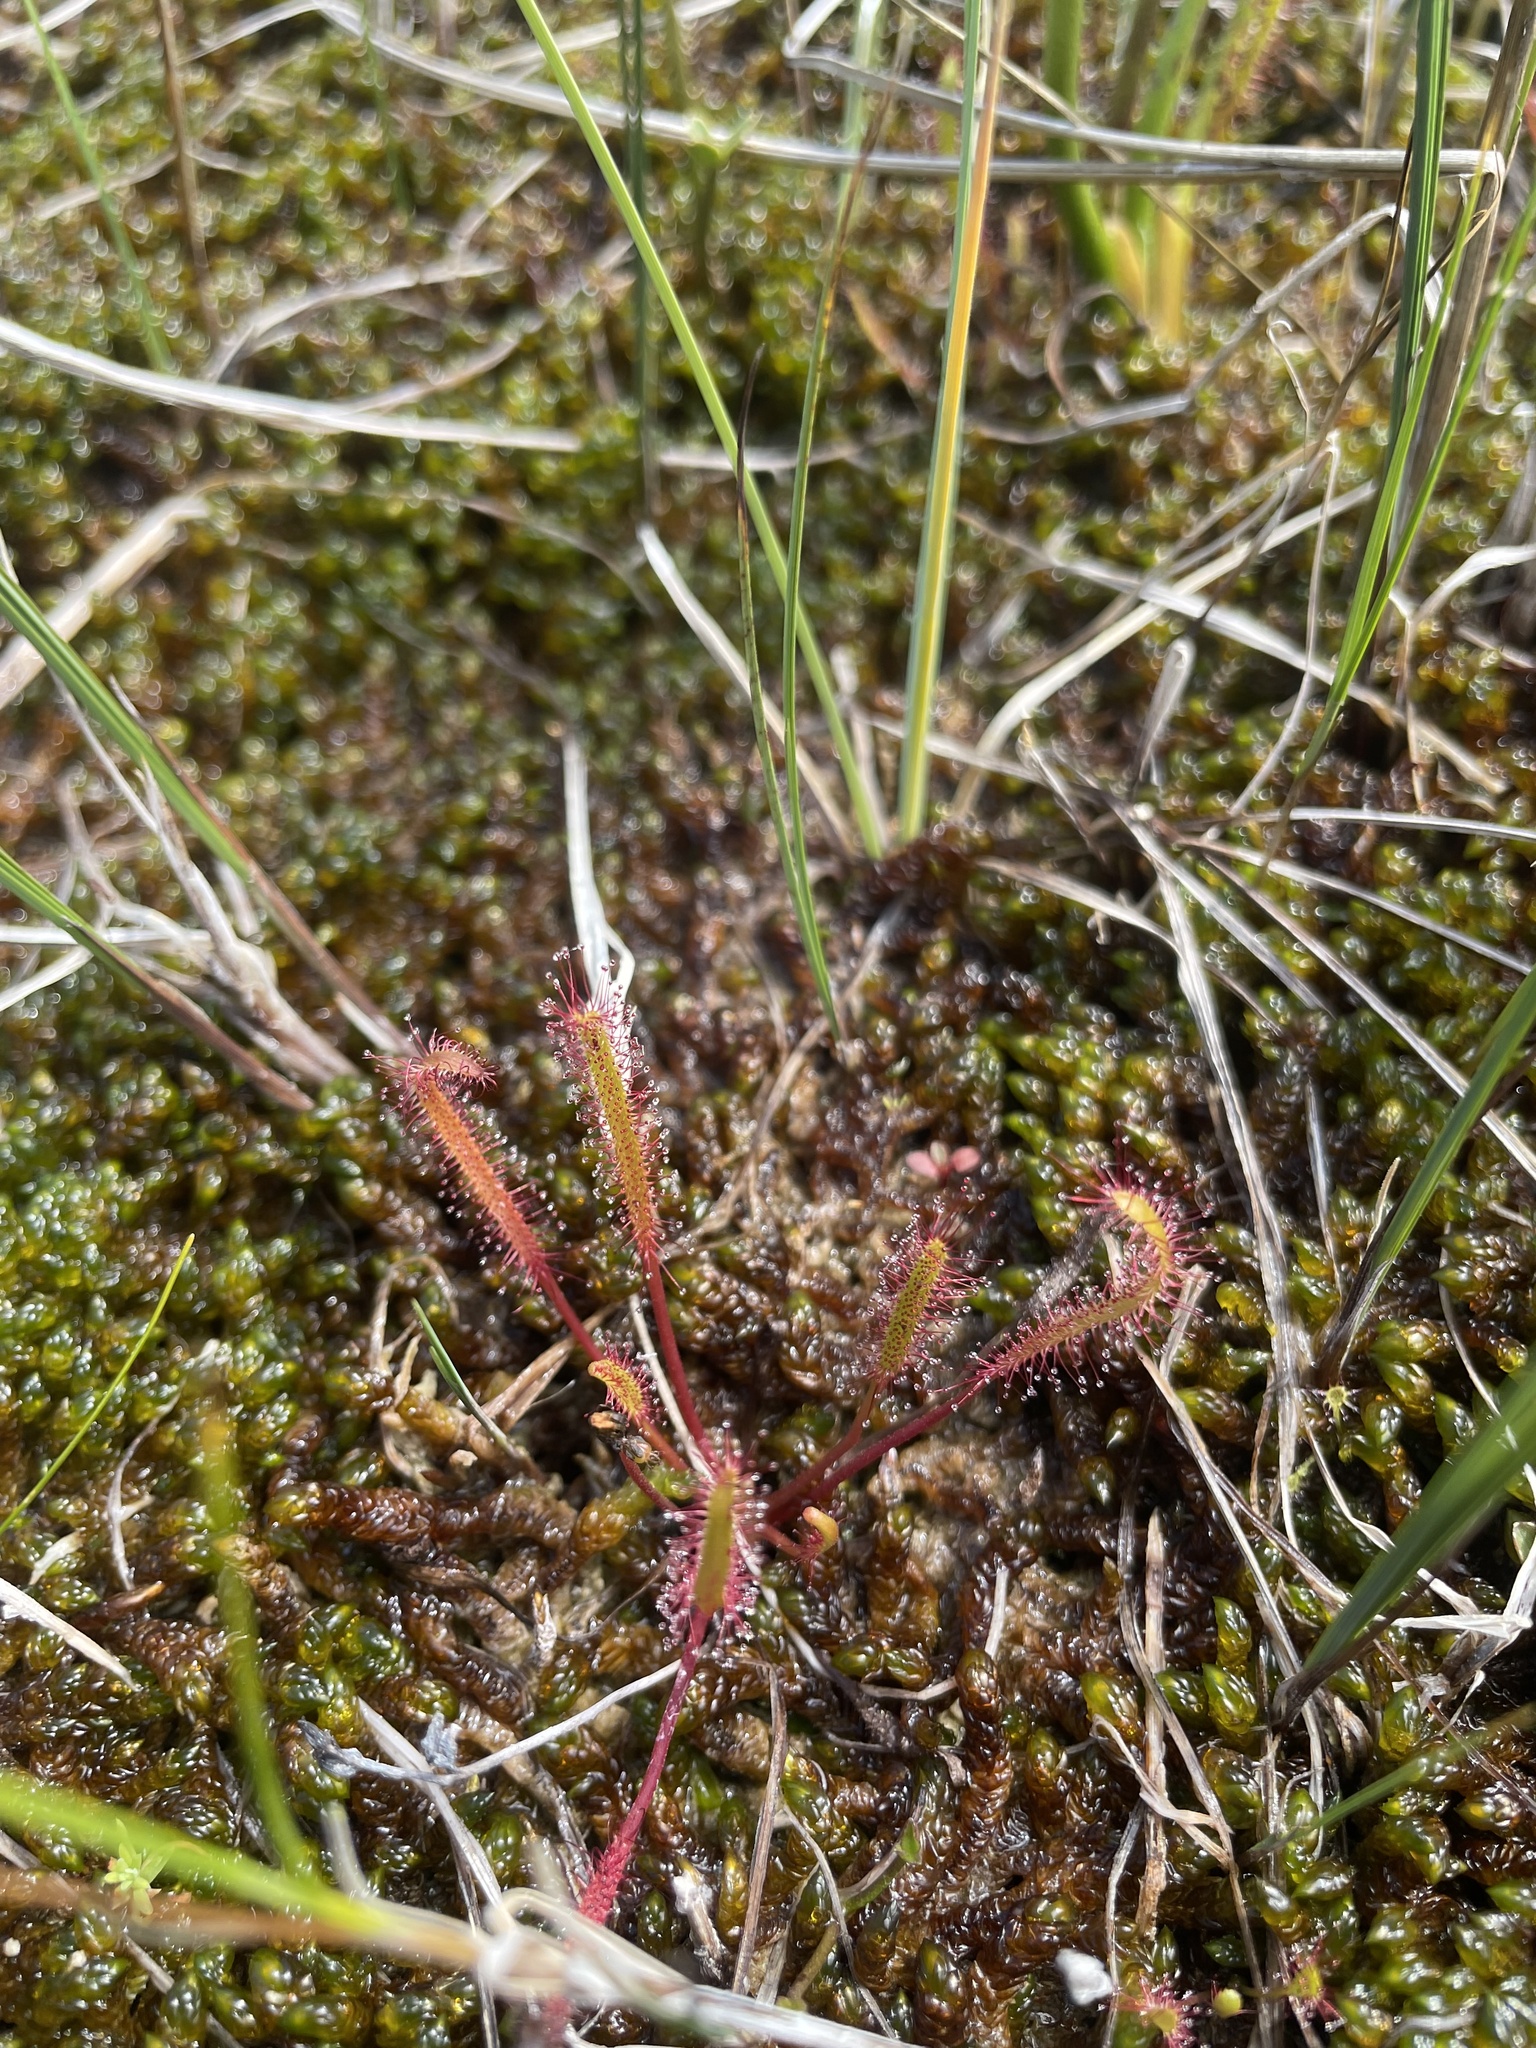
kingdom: Plantae
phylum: Tracheophyta
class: Magnoliopsida
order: Caryophyllales
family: Droseraceae
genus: Drosera
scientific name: Drosera linearis
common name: Linear-leaved sundew
